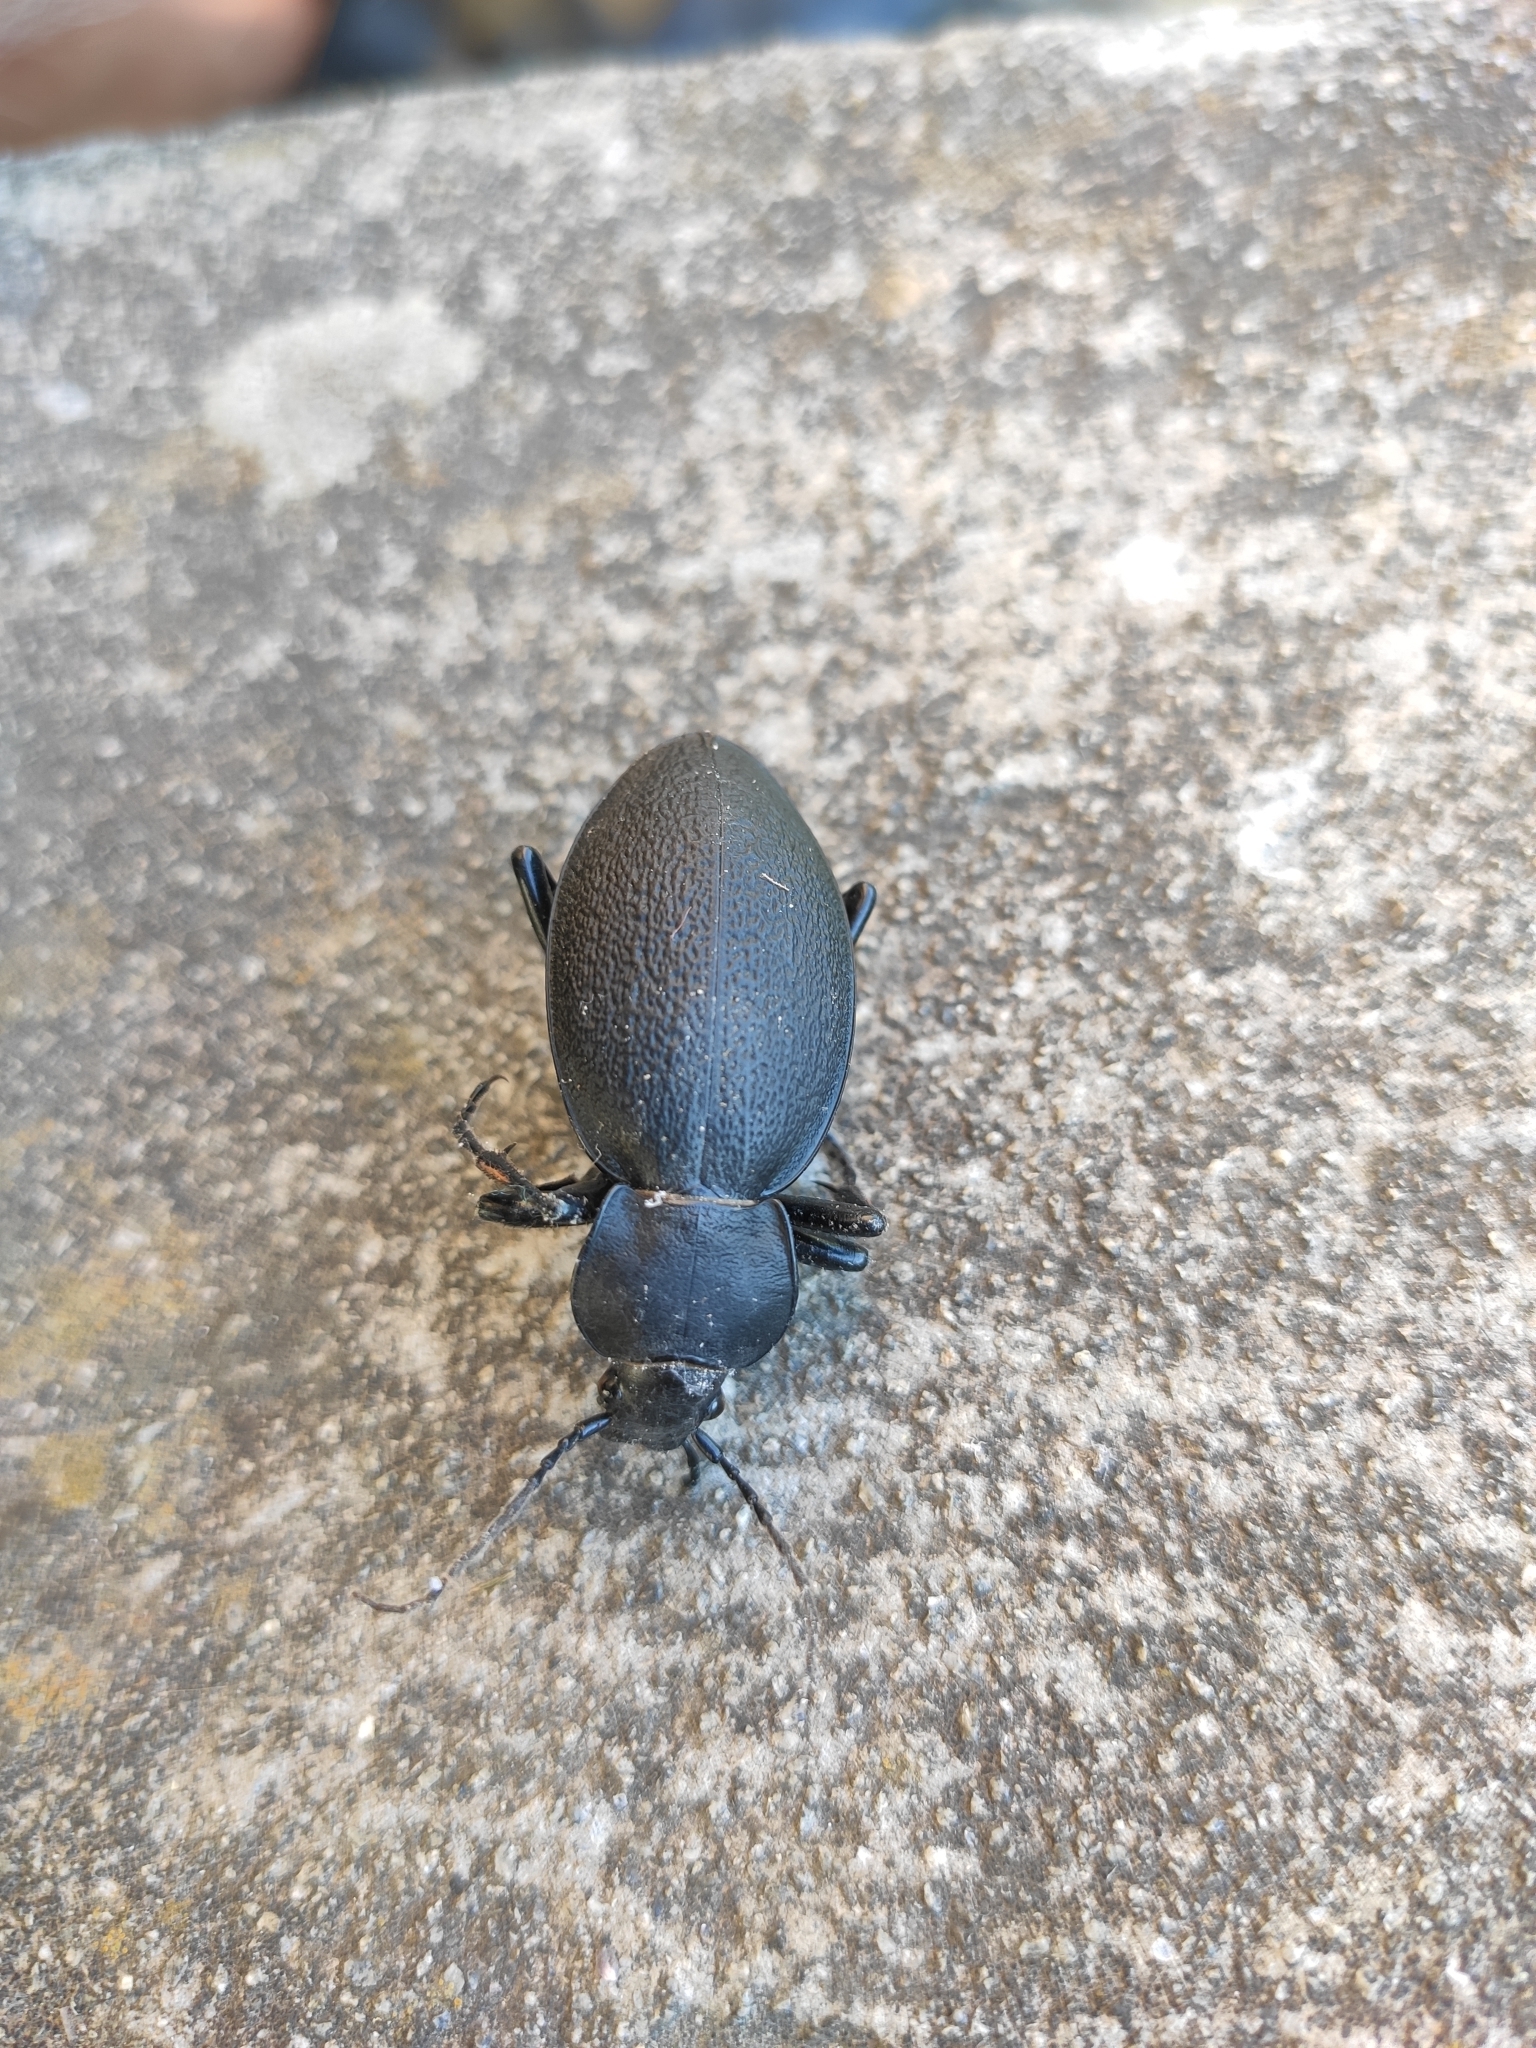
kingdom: Animalia
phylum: Arthropoda
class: Insecta
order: Coleoptera
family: Carabidae
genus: Carabus
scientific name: Carabus coriaceus
